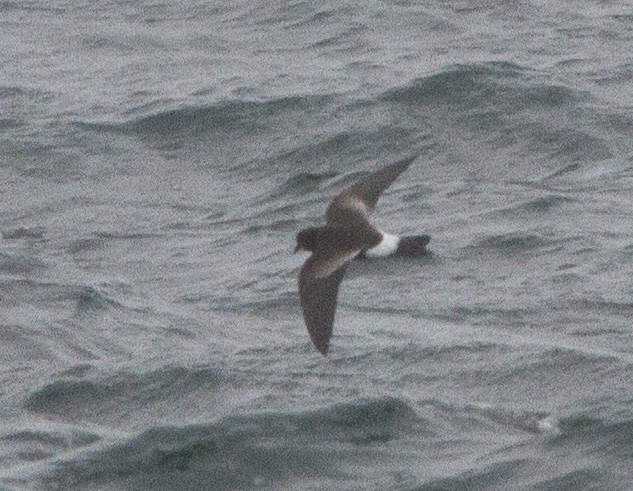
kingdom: Animalia
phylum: Chordata
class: Aves
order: Procellariiformes
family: Hydrobatidae
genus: Oceanites
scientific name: Oceanites oceanicus
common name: Wilson's storm petrel
